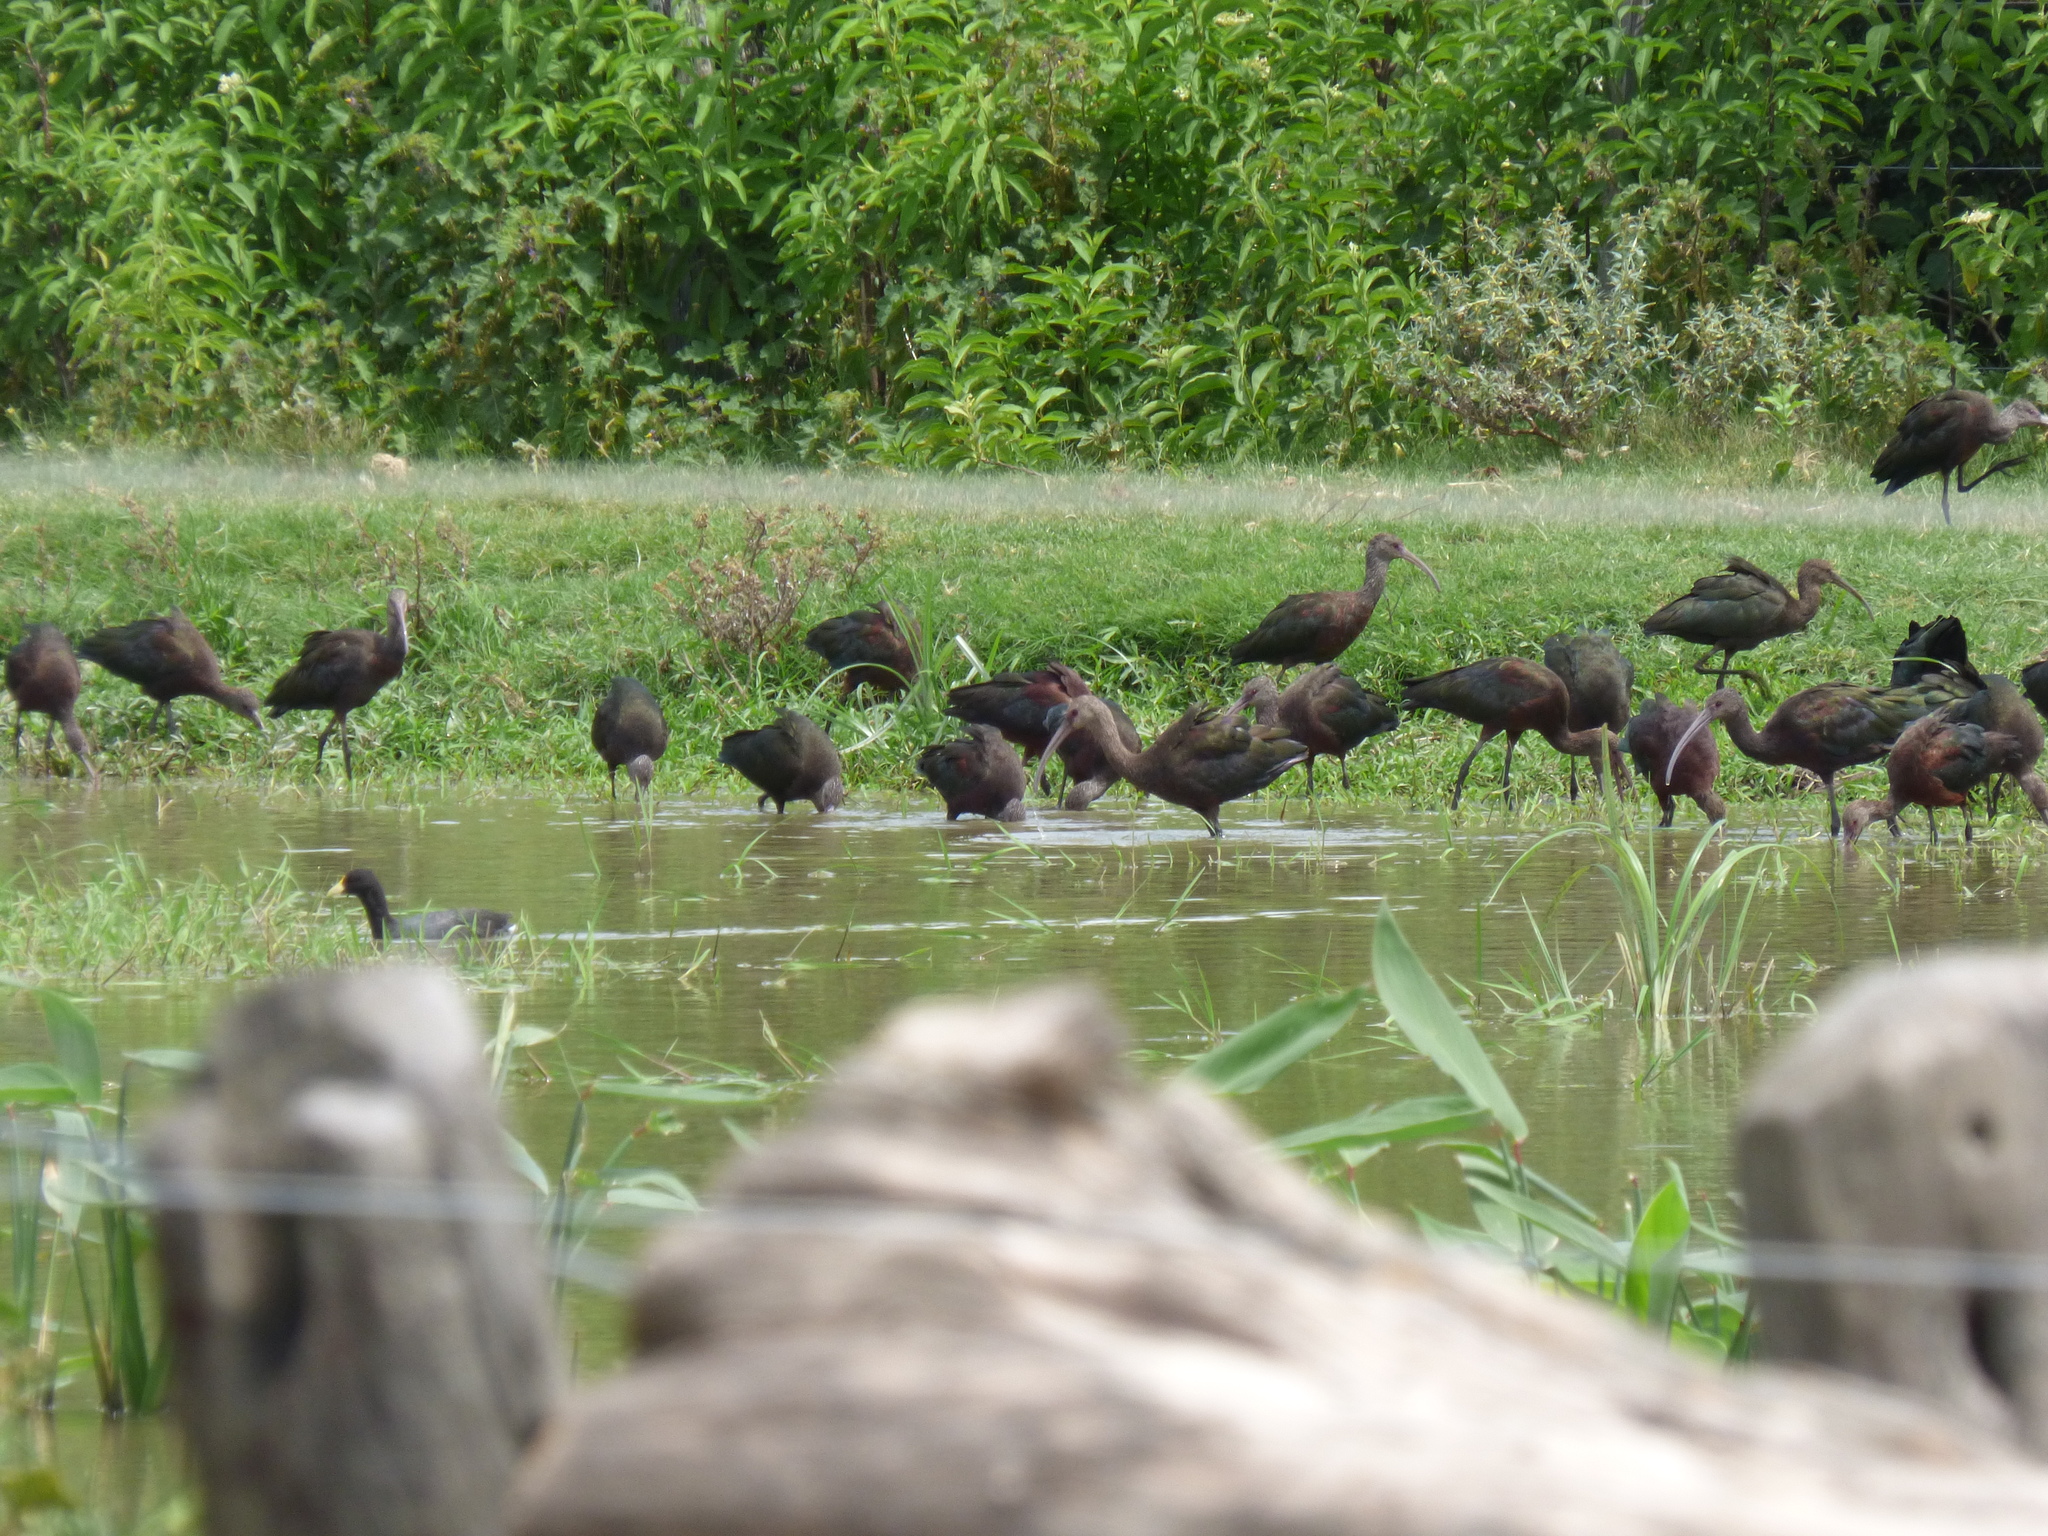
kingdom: Animalia
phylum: Chordata
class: Aves
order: Pelecaniformes
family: Threskiornithidae
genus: Plegadis
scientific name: Plegadis chihi
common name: White-faced ibis
